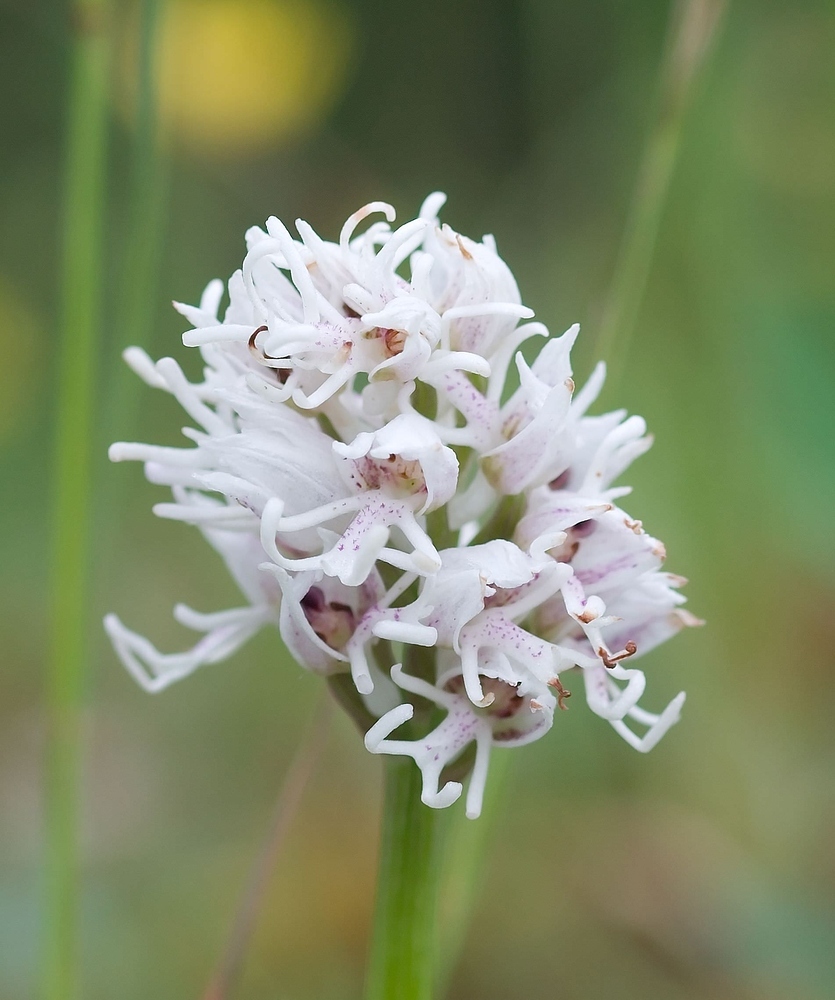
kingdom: Plantae
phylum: Tracheophyta
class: Liliopsida
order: Asparagales
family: Orchidaceae
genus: Orchis
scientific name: Orchis simia
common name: Monkey orchid
